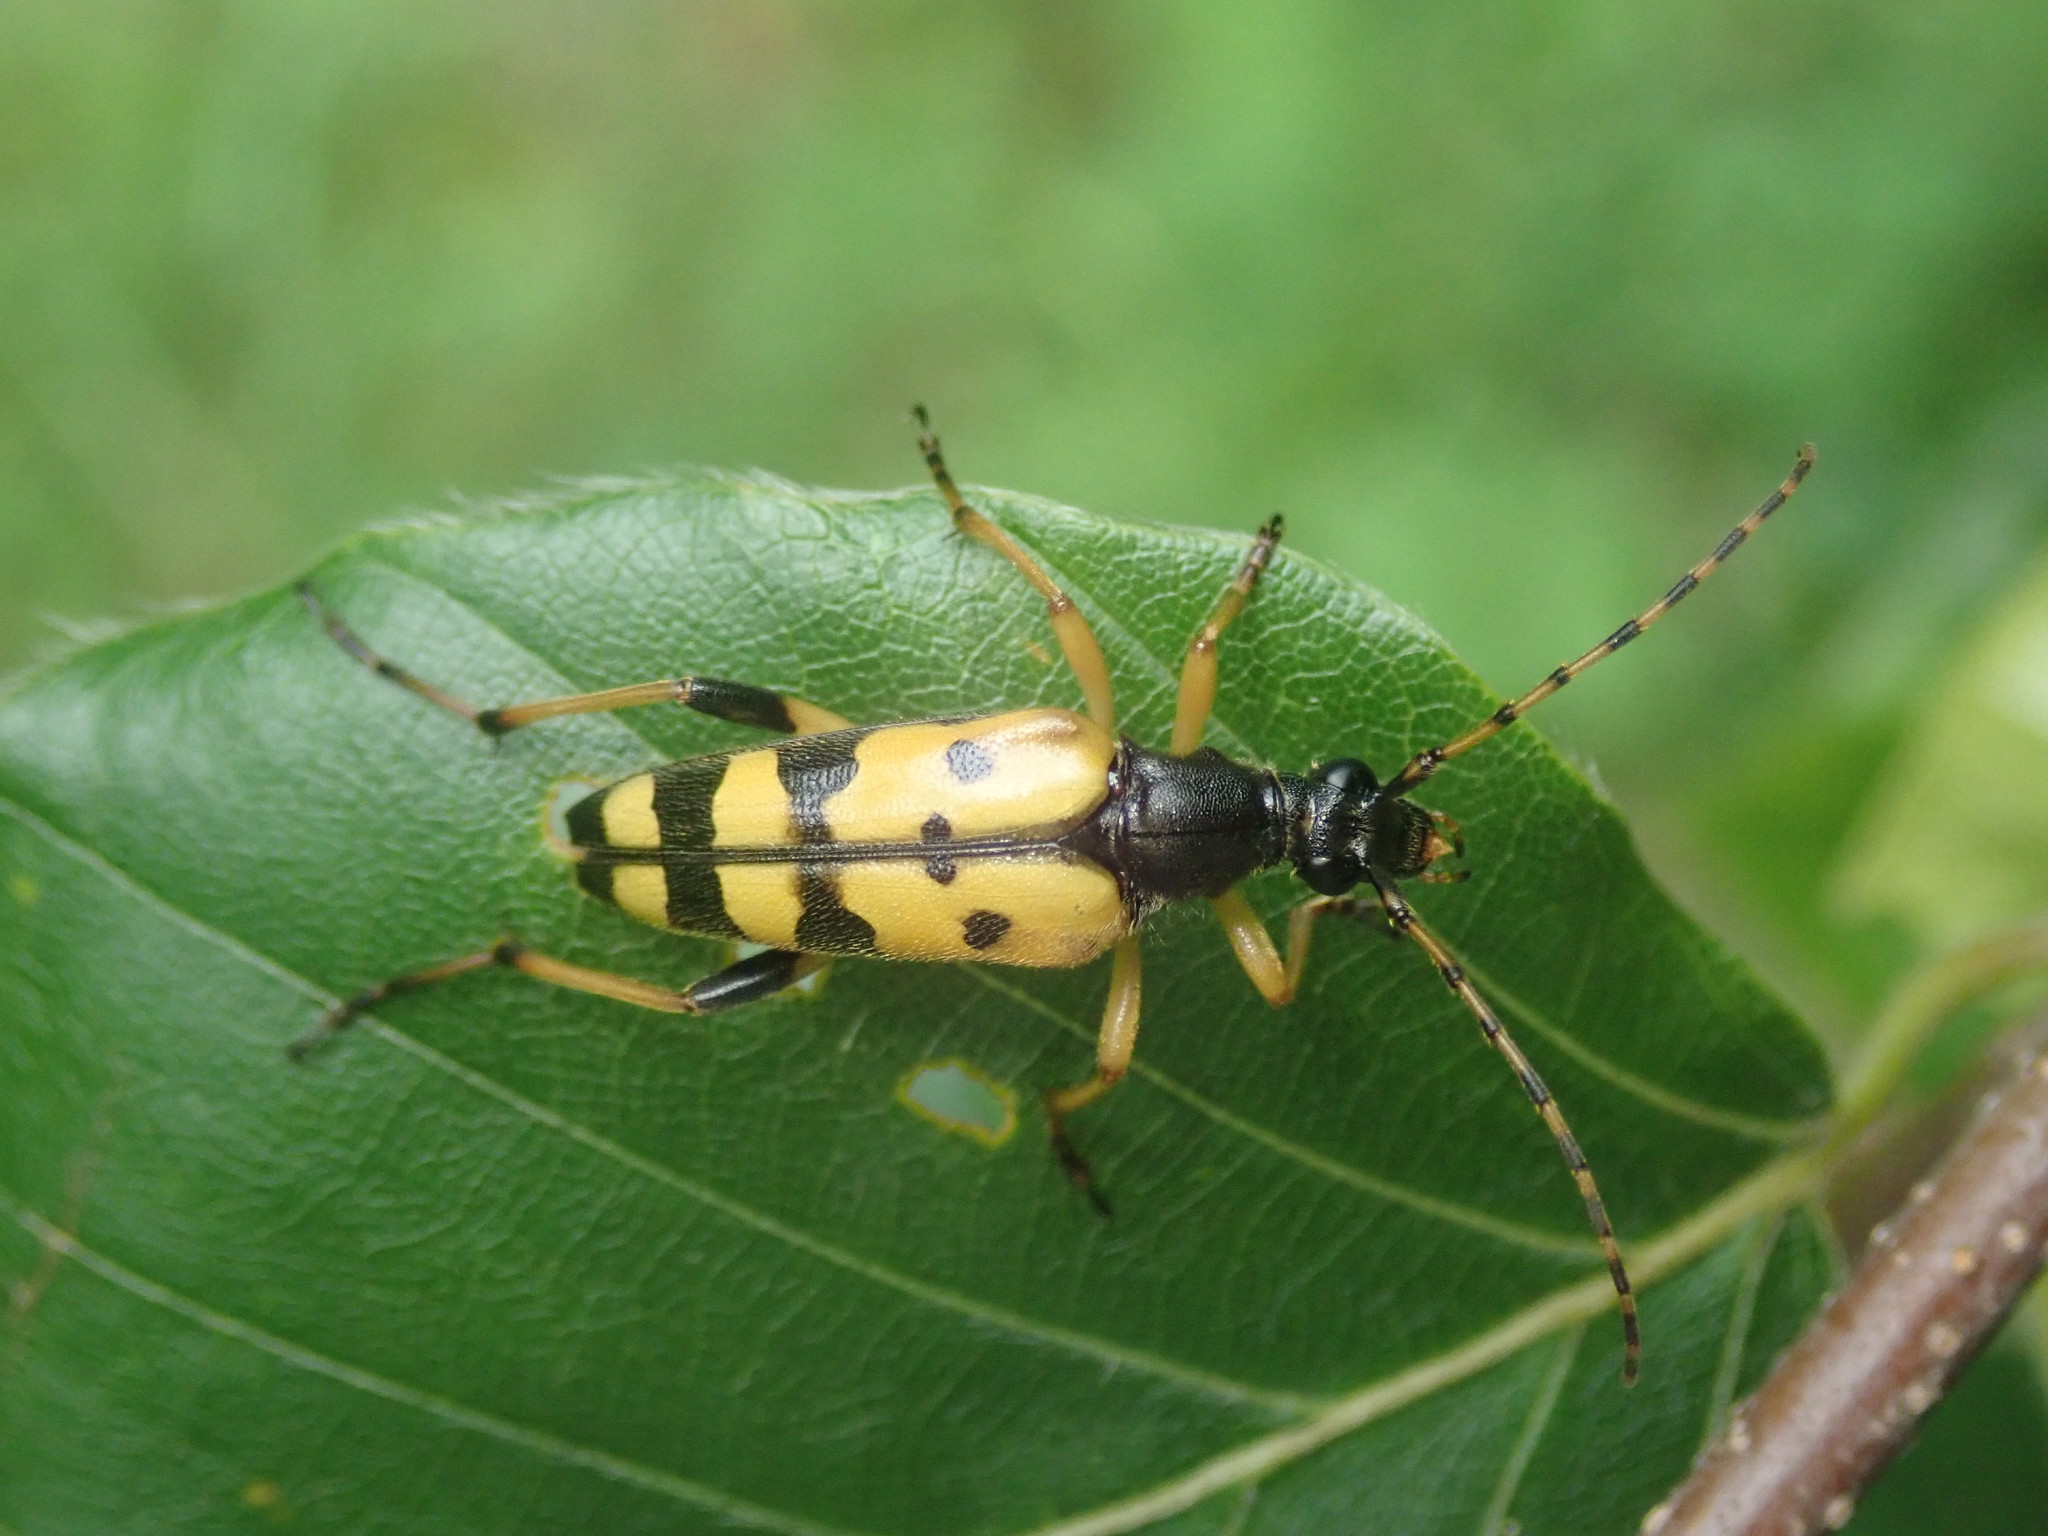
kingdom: Animalia
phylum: Arthropoda
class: Insecta
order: Coleoptera
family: Cerambycidae
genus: Rutpela
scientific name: Rutpela maculata
